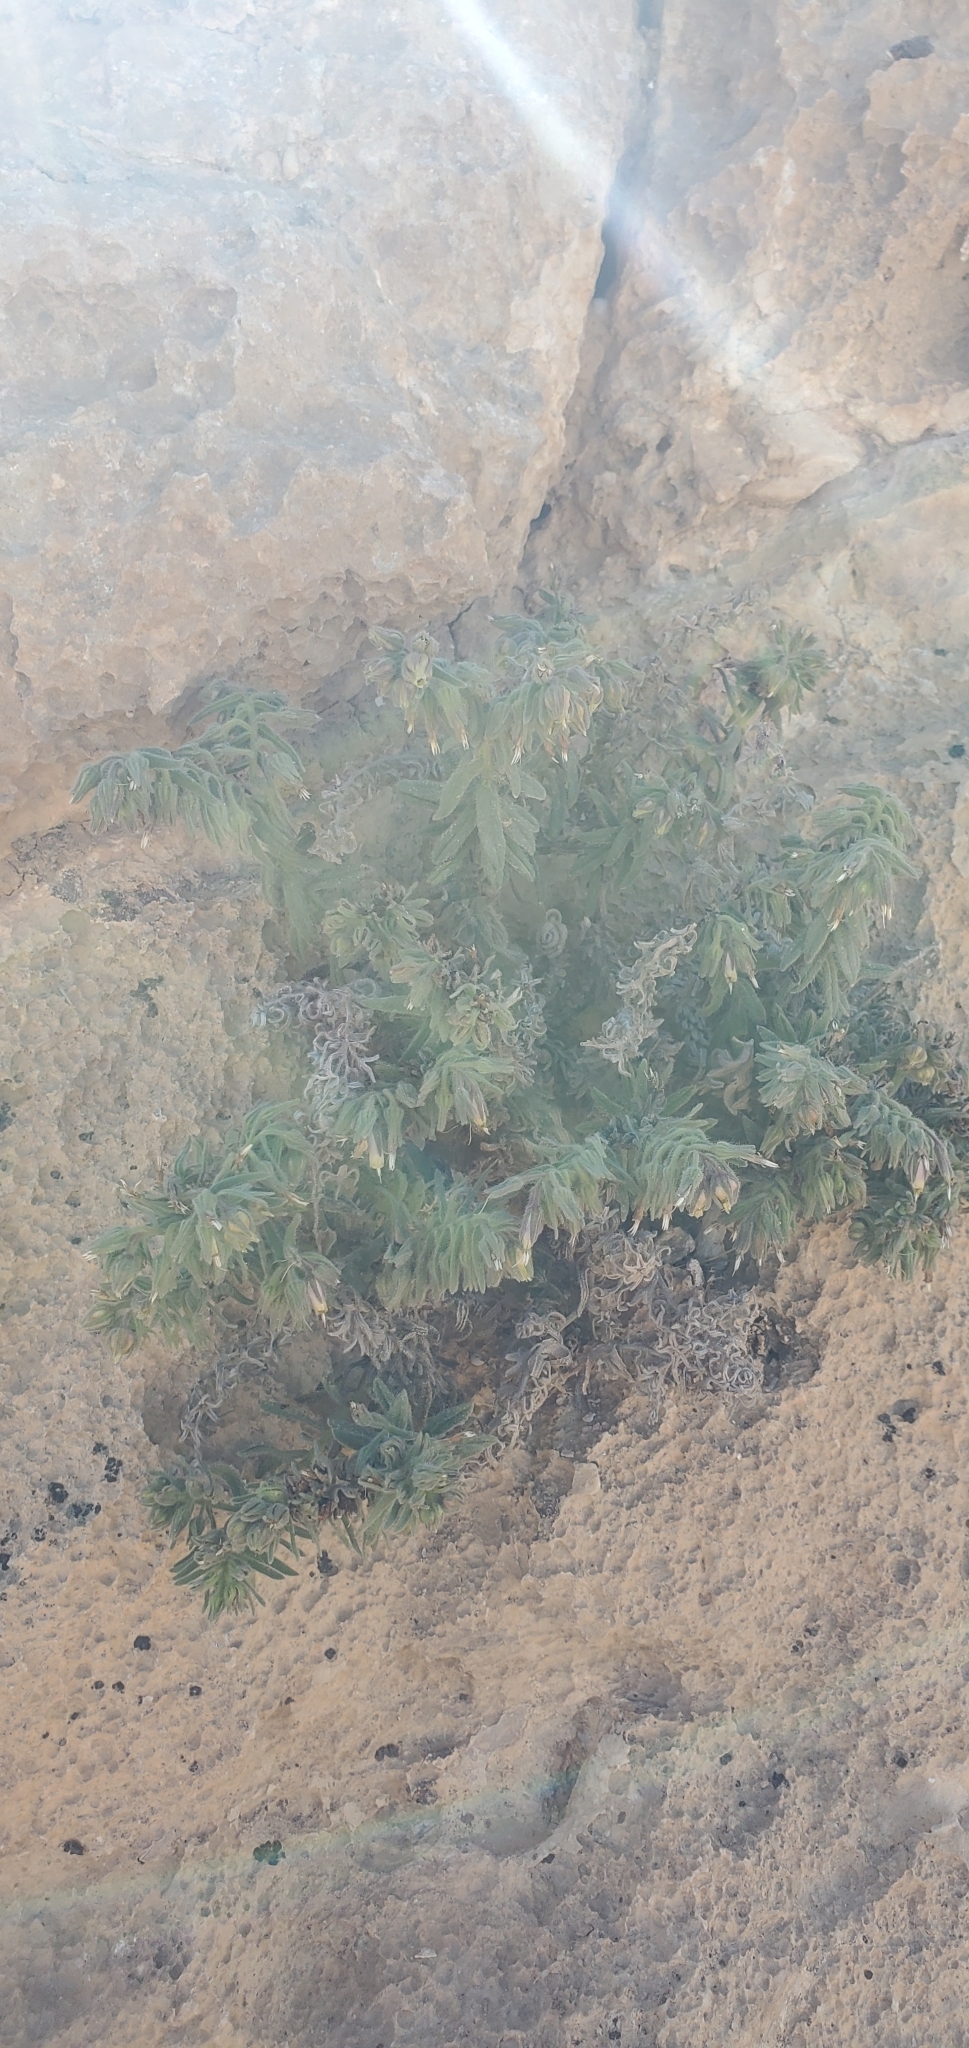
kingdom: Plantae
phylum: Tracheophyta
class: Magnoliopsida
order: Boraginales
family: Boraginaceae
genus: Podonosma
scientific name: Podonosma orientalis
